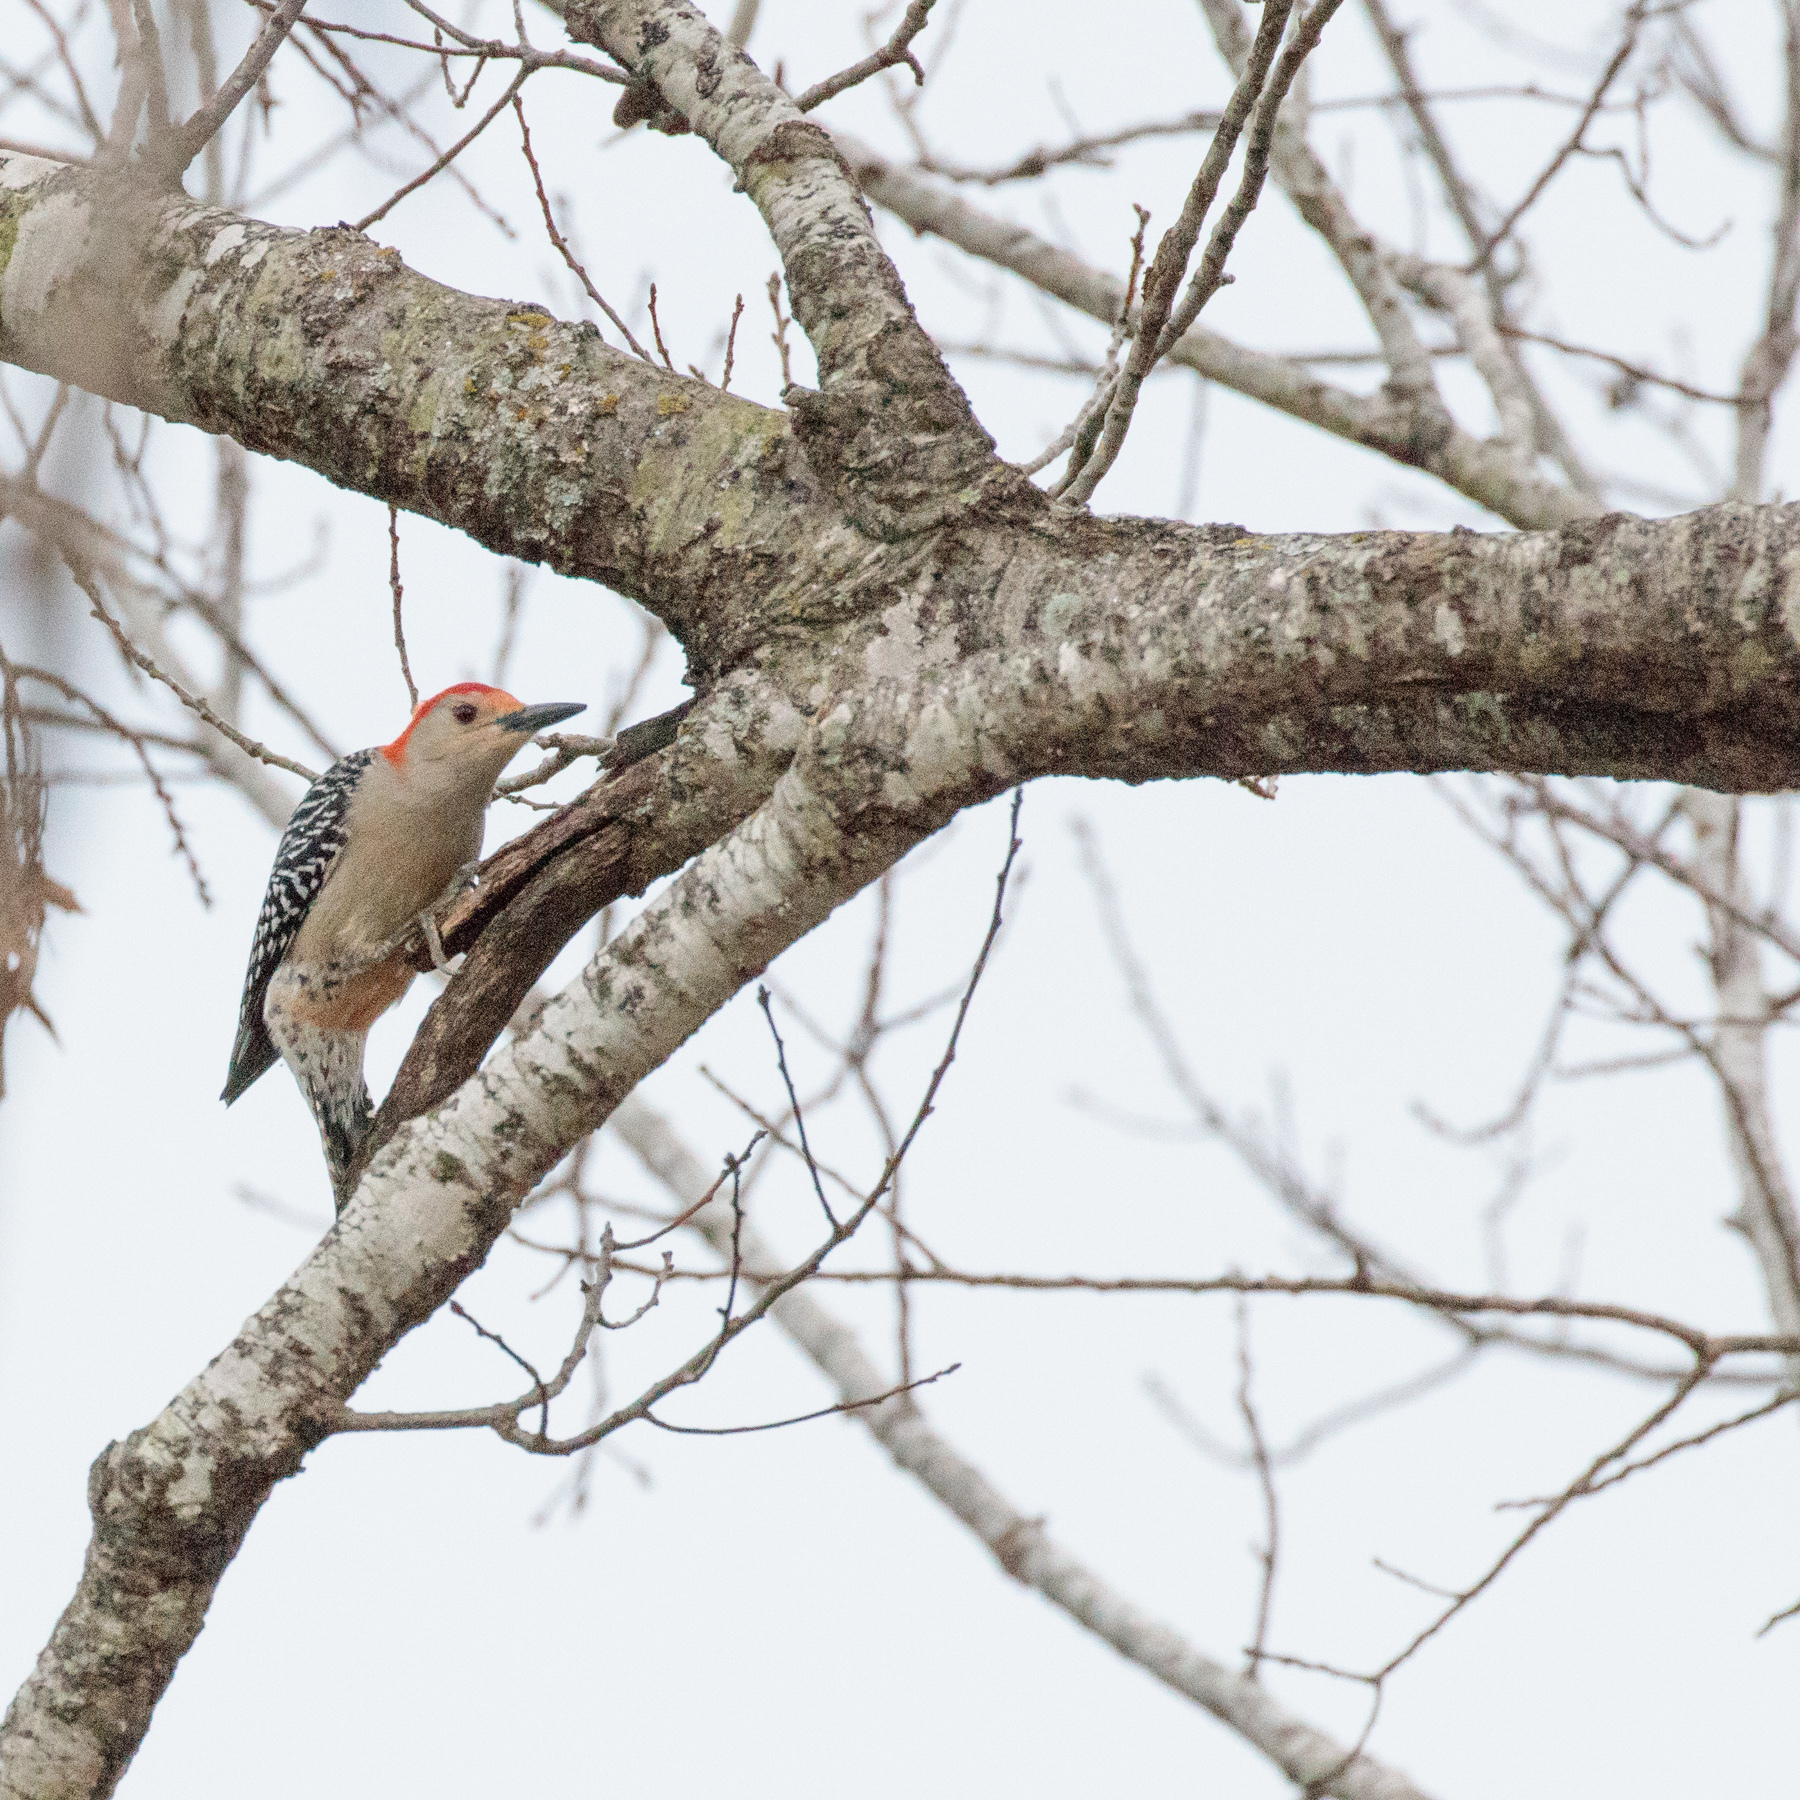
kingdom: Animalia
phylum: Chordata
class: Aves
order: Piciformes
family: Picidae
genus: Melanerpes
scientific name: Melanerpes carolinus
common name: Red-bellied woodpecker
